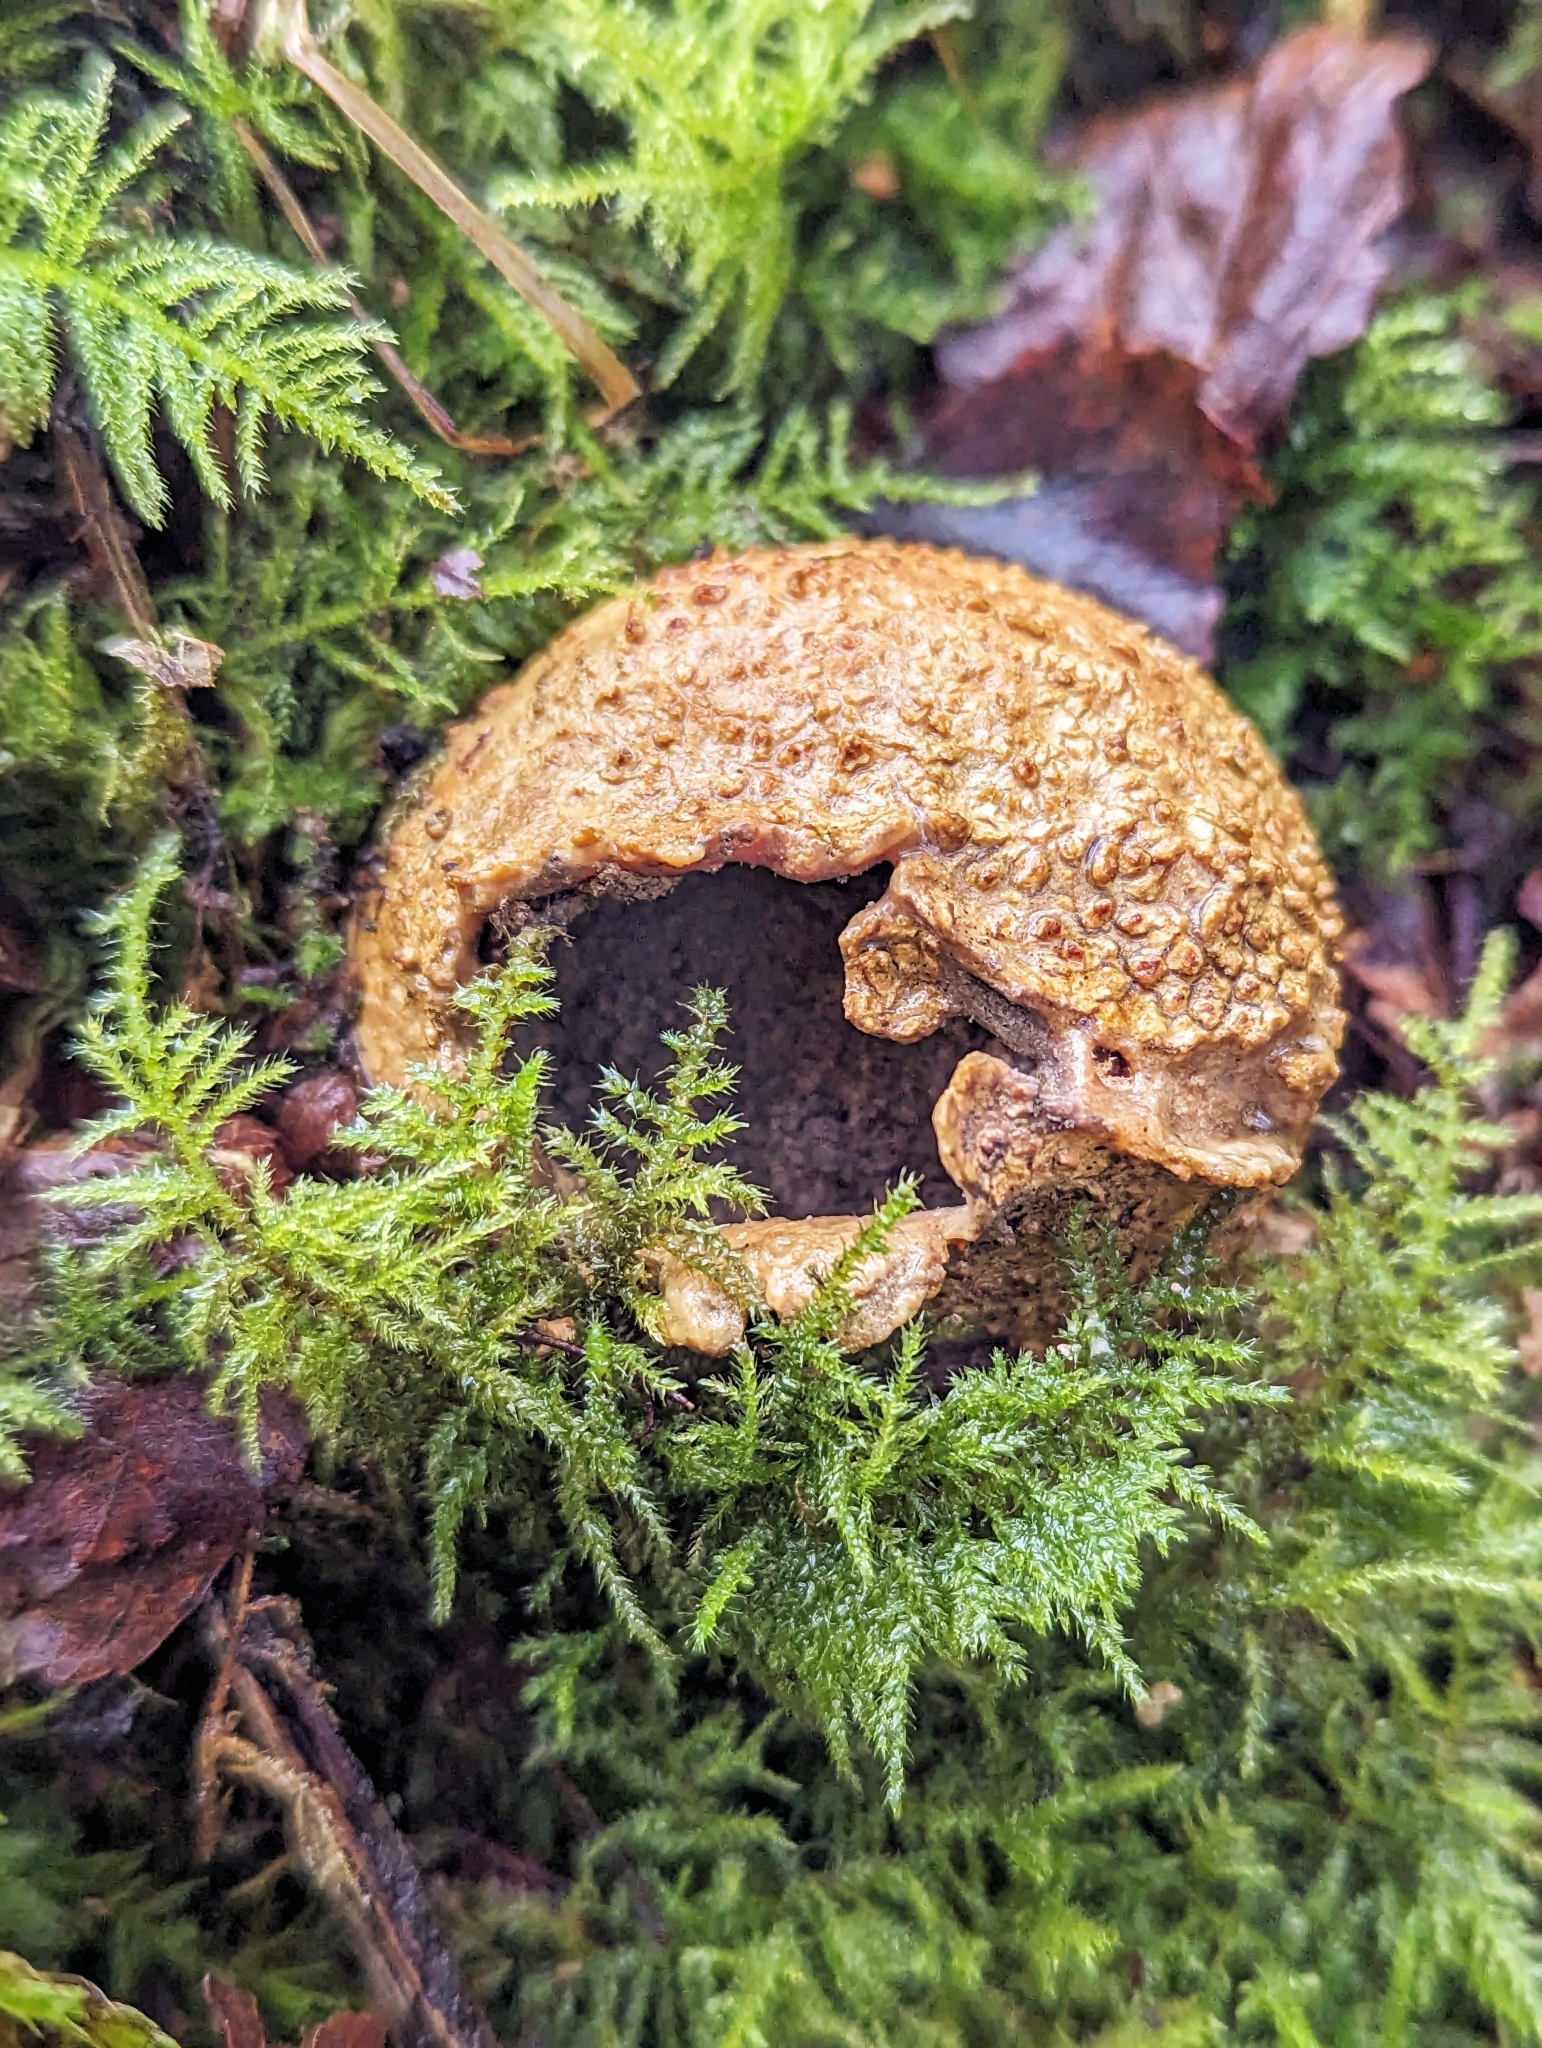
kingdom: Fungi
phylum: Basidiomycota
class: Agaricomycetes
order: Boletales
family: Sclerodermataceae
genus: Scleroderma
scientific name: Scleroderma citrinum
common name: Common earthball
